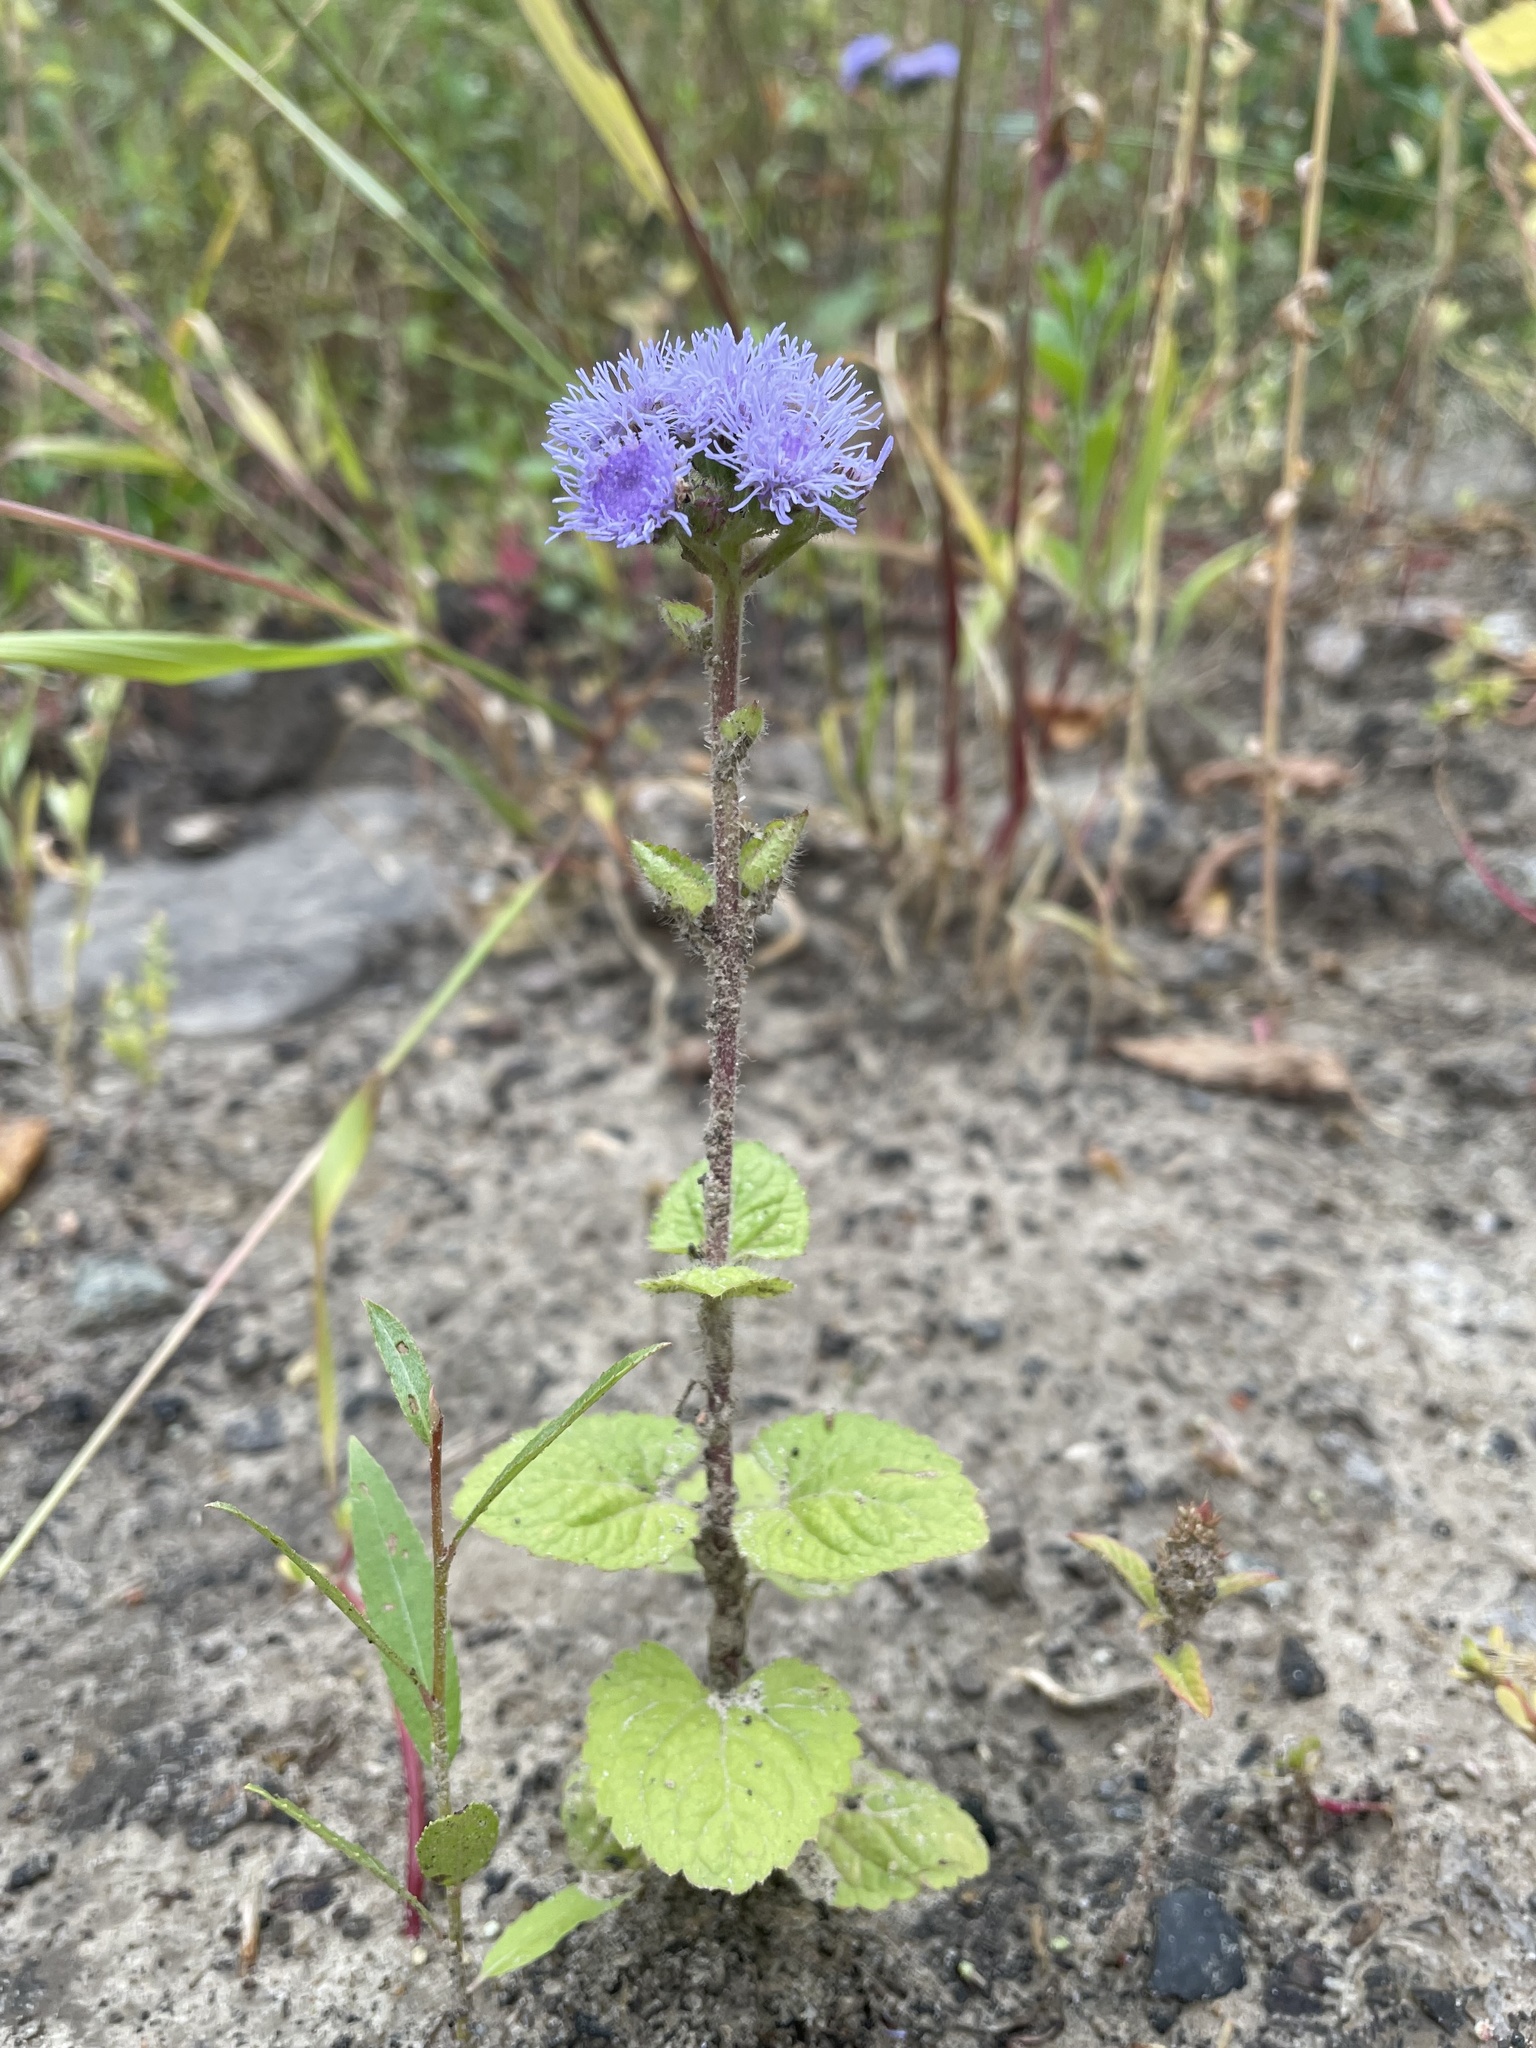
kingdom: Plantae
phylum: Tracheophyta
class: Magnoliopsida
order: Asterales
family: Asteraceae
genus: Ageratum
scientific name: Ageratum houstonianum
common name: Bluemink
